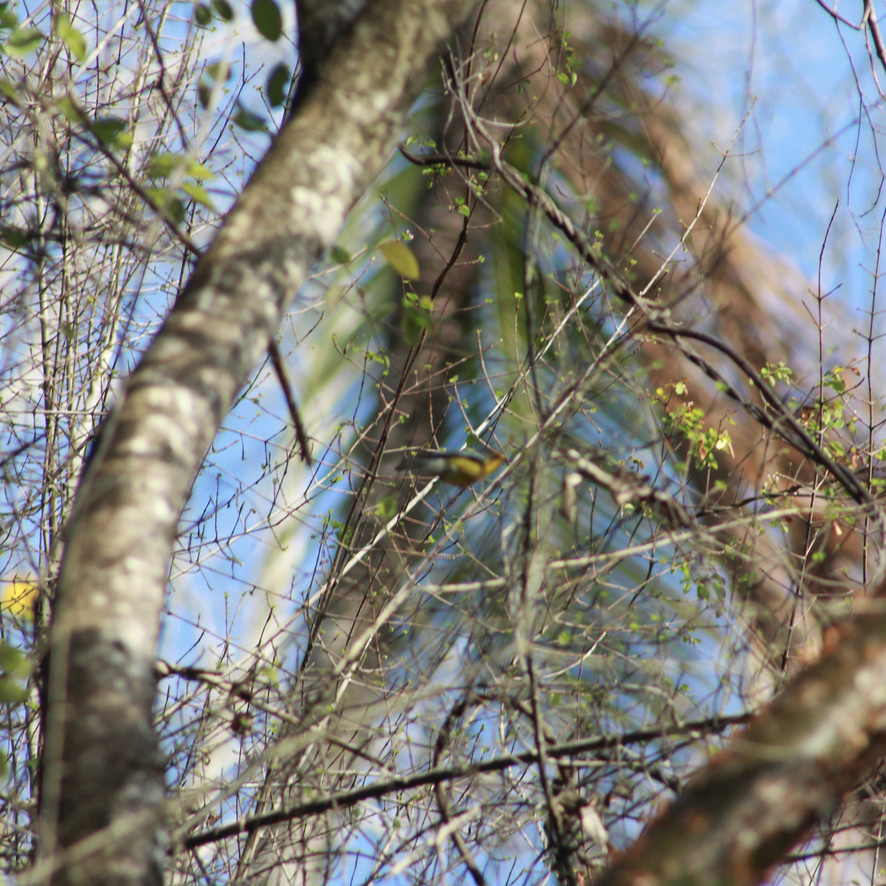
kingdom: Animalia
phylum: Chordata
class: Aves
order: Passeriformes
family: Parulidae
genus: Setophaga
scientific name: Setophaga delicata
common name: St. lucia warbler
